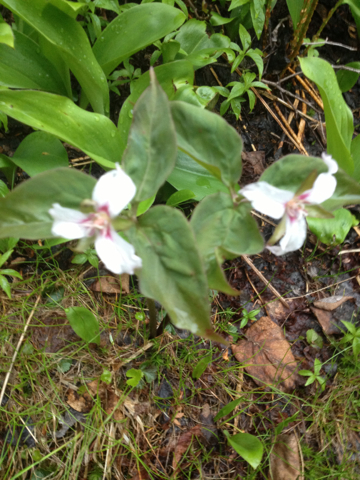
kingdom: Plantae
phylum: Tracheophyta
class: Liliopsida
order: Liliales
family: Melanthiaceae
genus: Trillium
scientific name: Trillium undulatum
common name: Paint trillium
